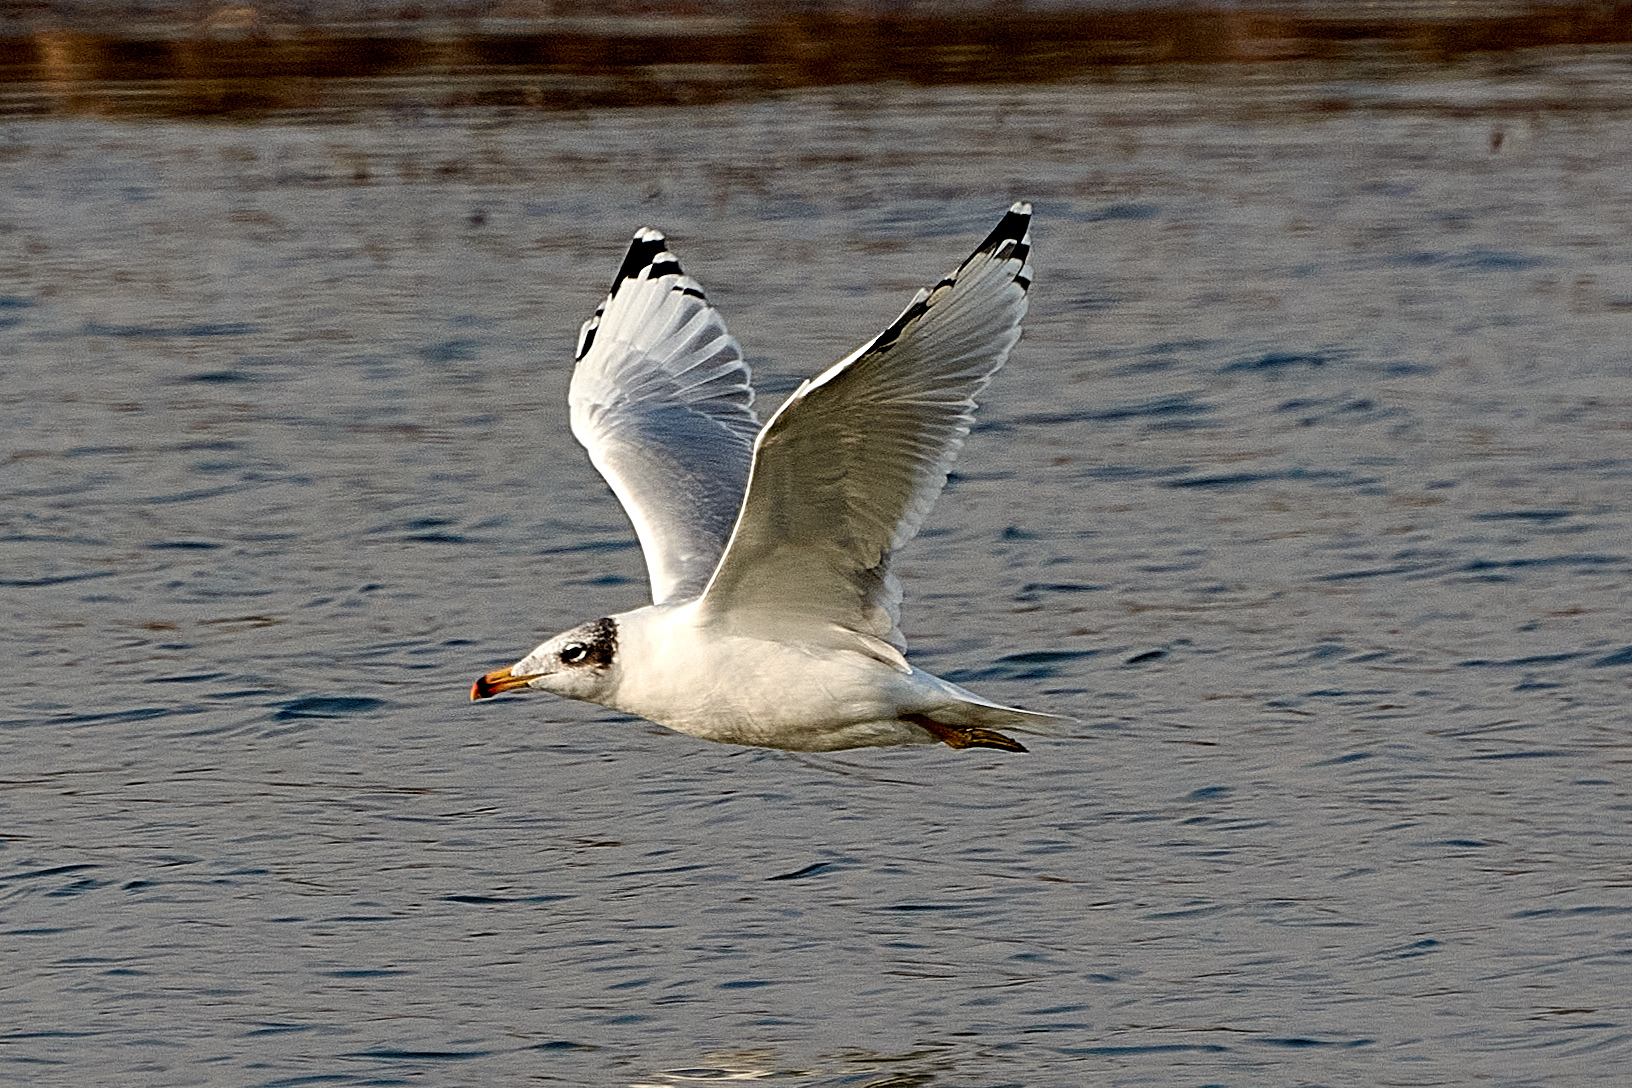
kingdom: Animalia
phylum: Chordata
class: Aves
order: Charadriiformes
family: Laridae
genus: Ichthyaetus
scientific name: Ichthyaetus ichthyaetus
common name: Pallas's gull
